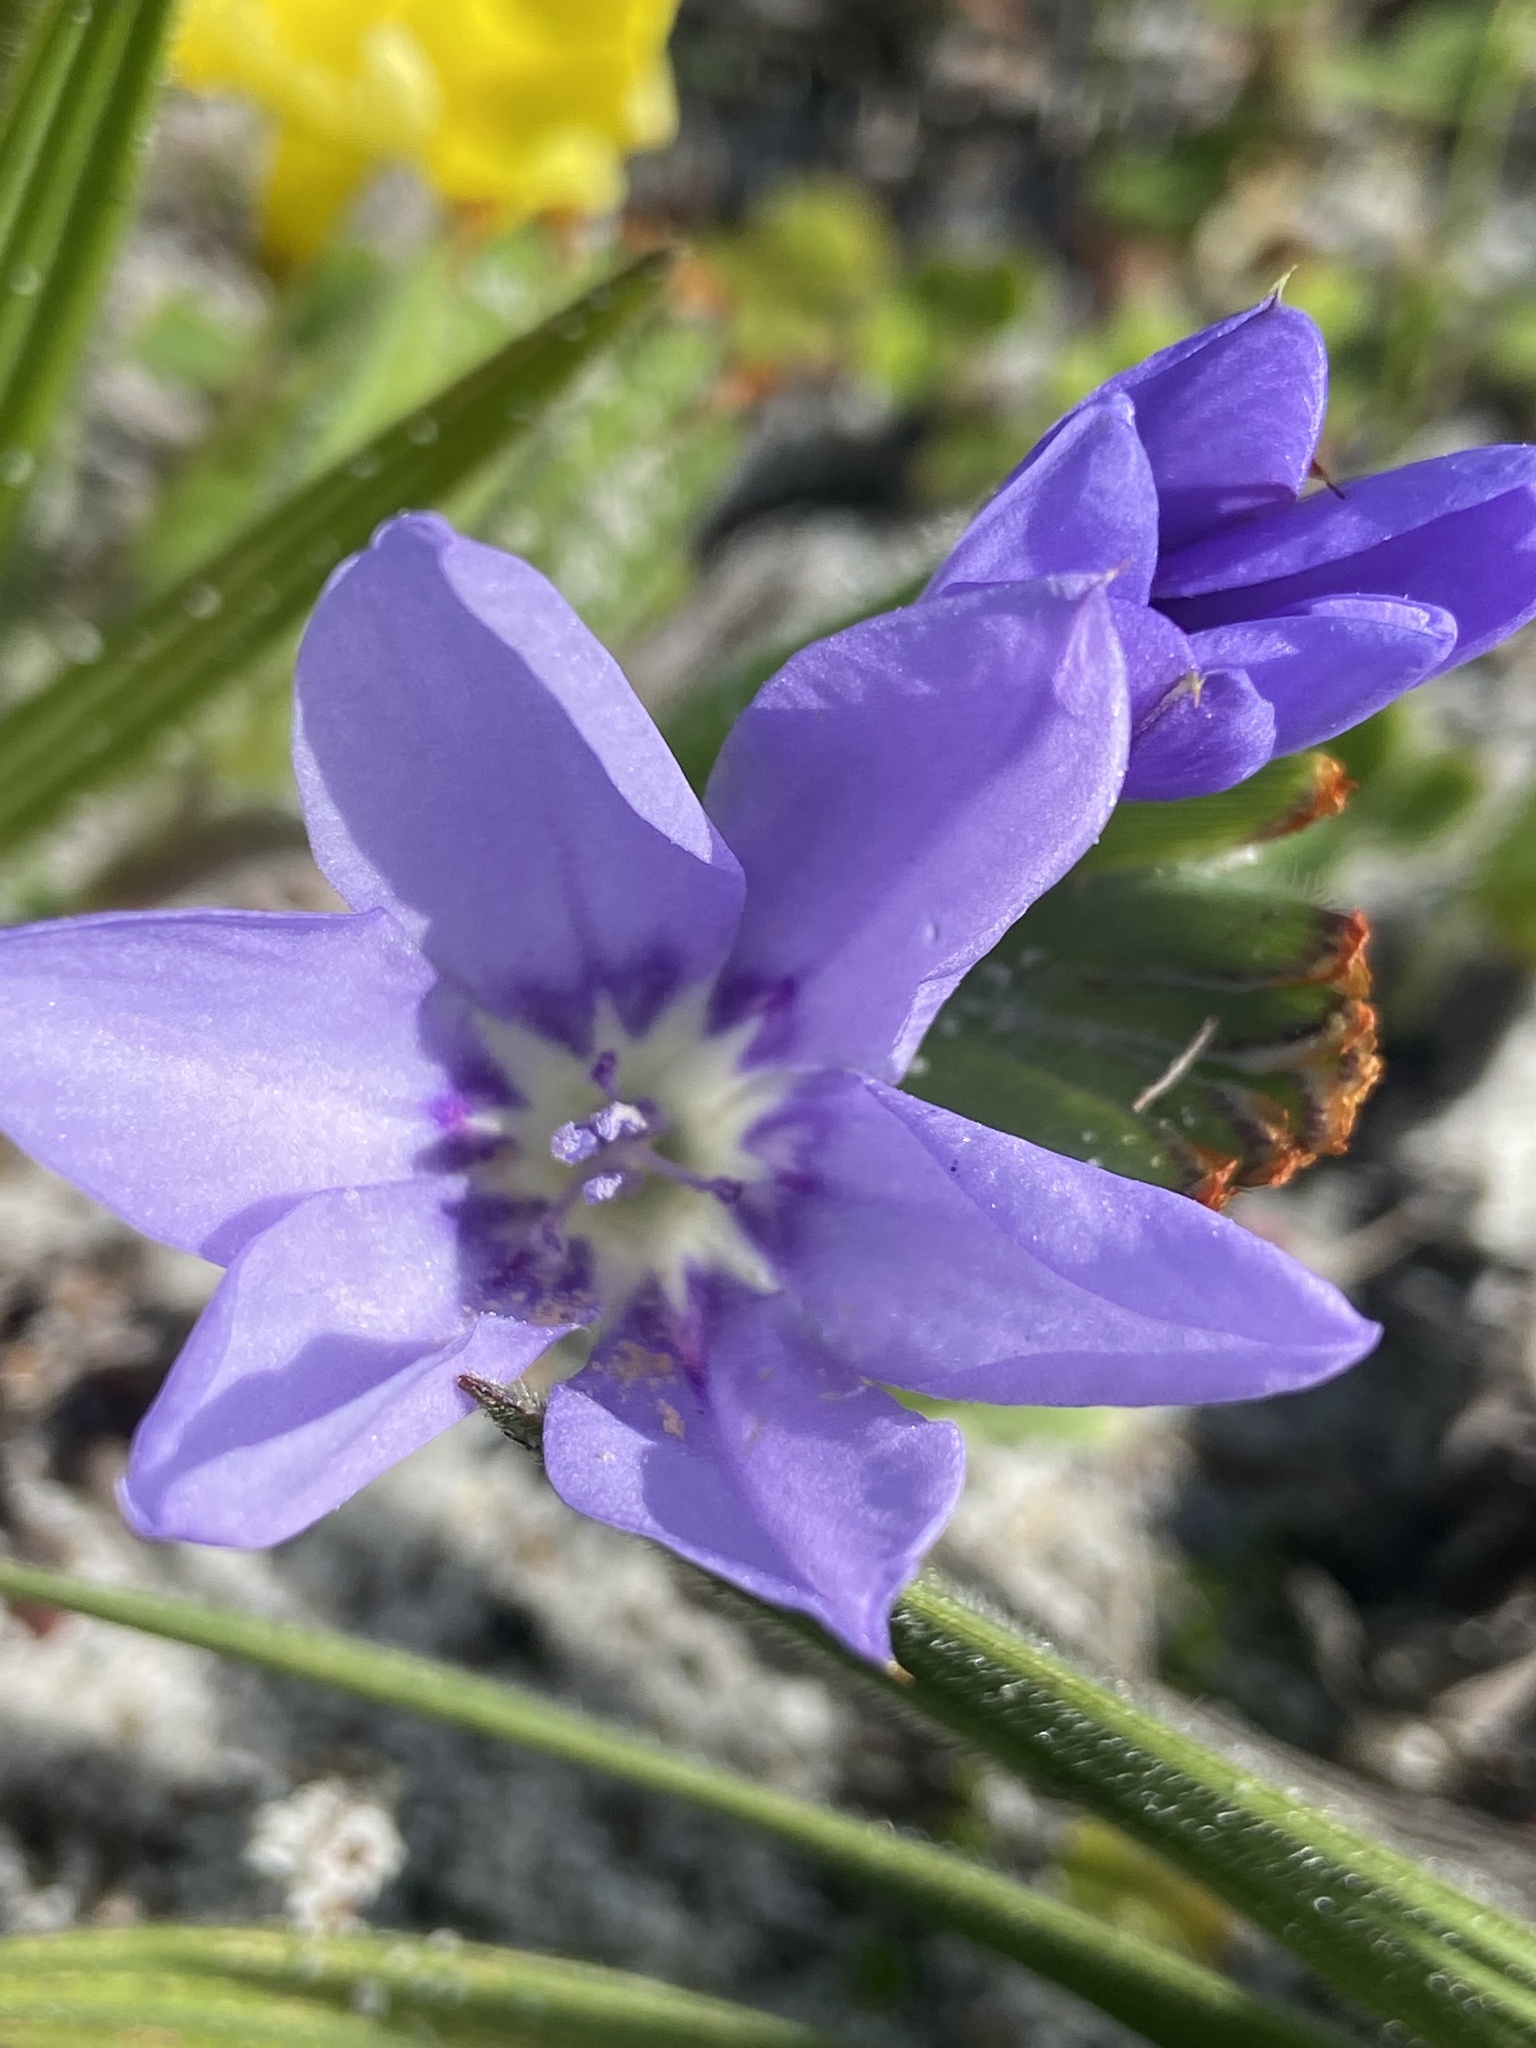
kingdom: Plantae
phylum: Tracheophyta
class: Liliopsida
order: Asparagales
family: Iridaceae
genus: Babiana
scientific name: Babiana villosula
